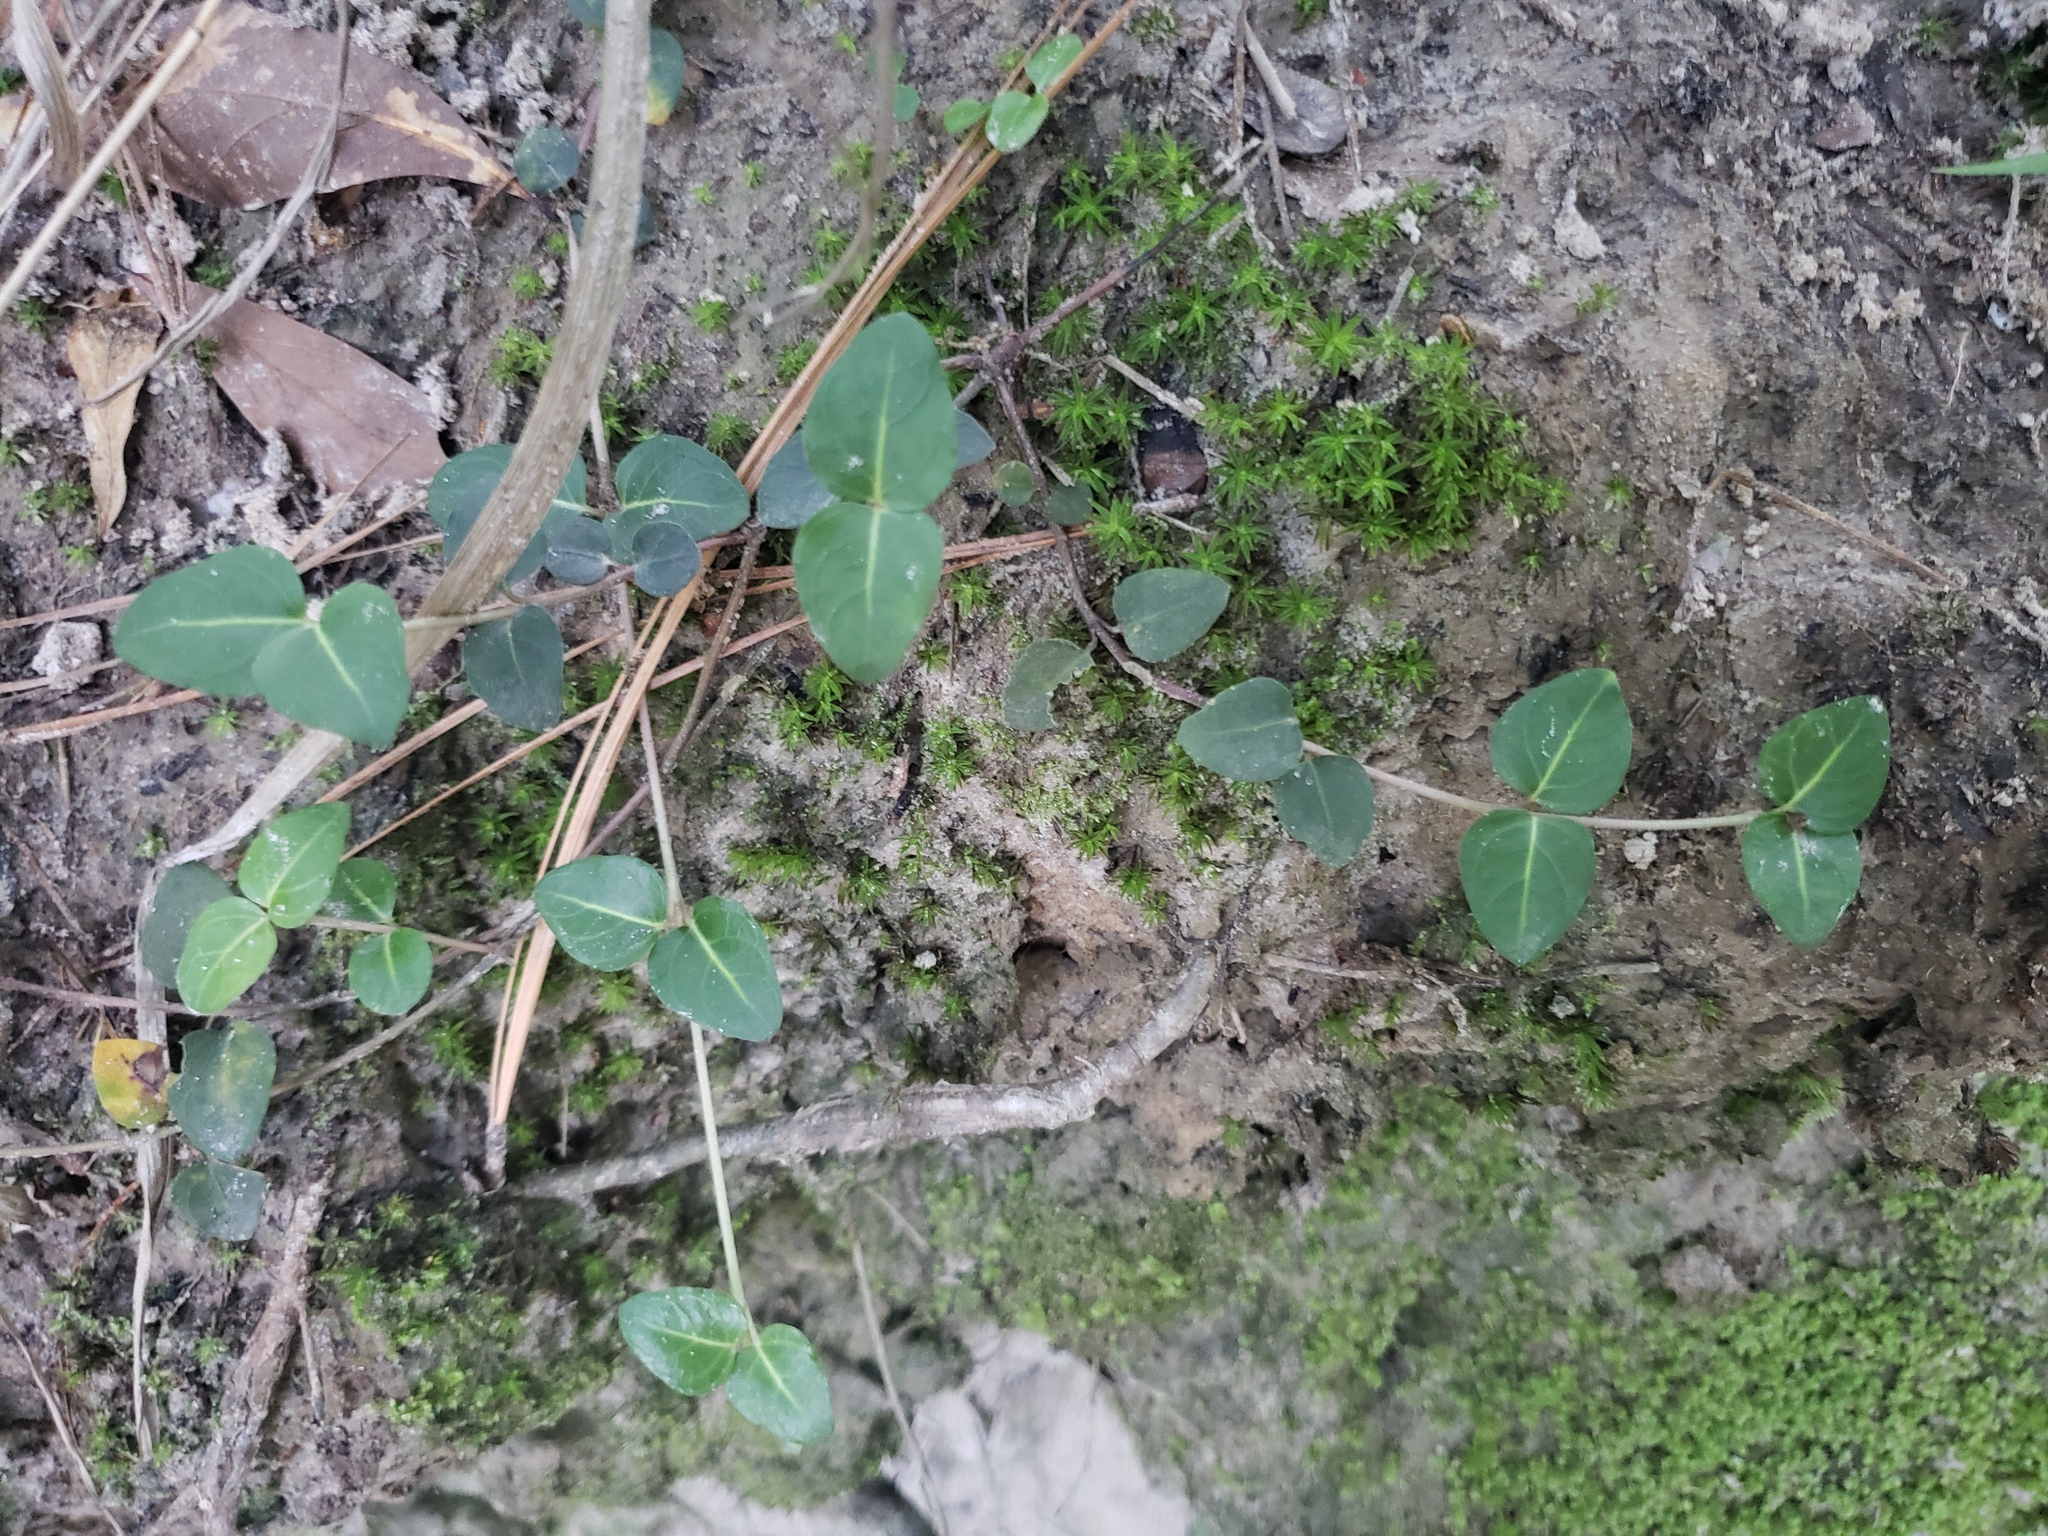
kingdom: Plantae
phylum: Tracheophyta
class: Magnoliopsida
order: Gentianales
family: Rubiaceae
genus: Mitchella
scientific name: Mitchella repens
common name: Partridge-berry
